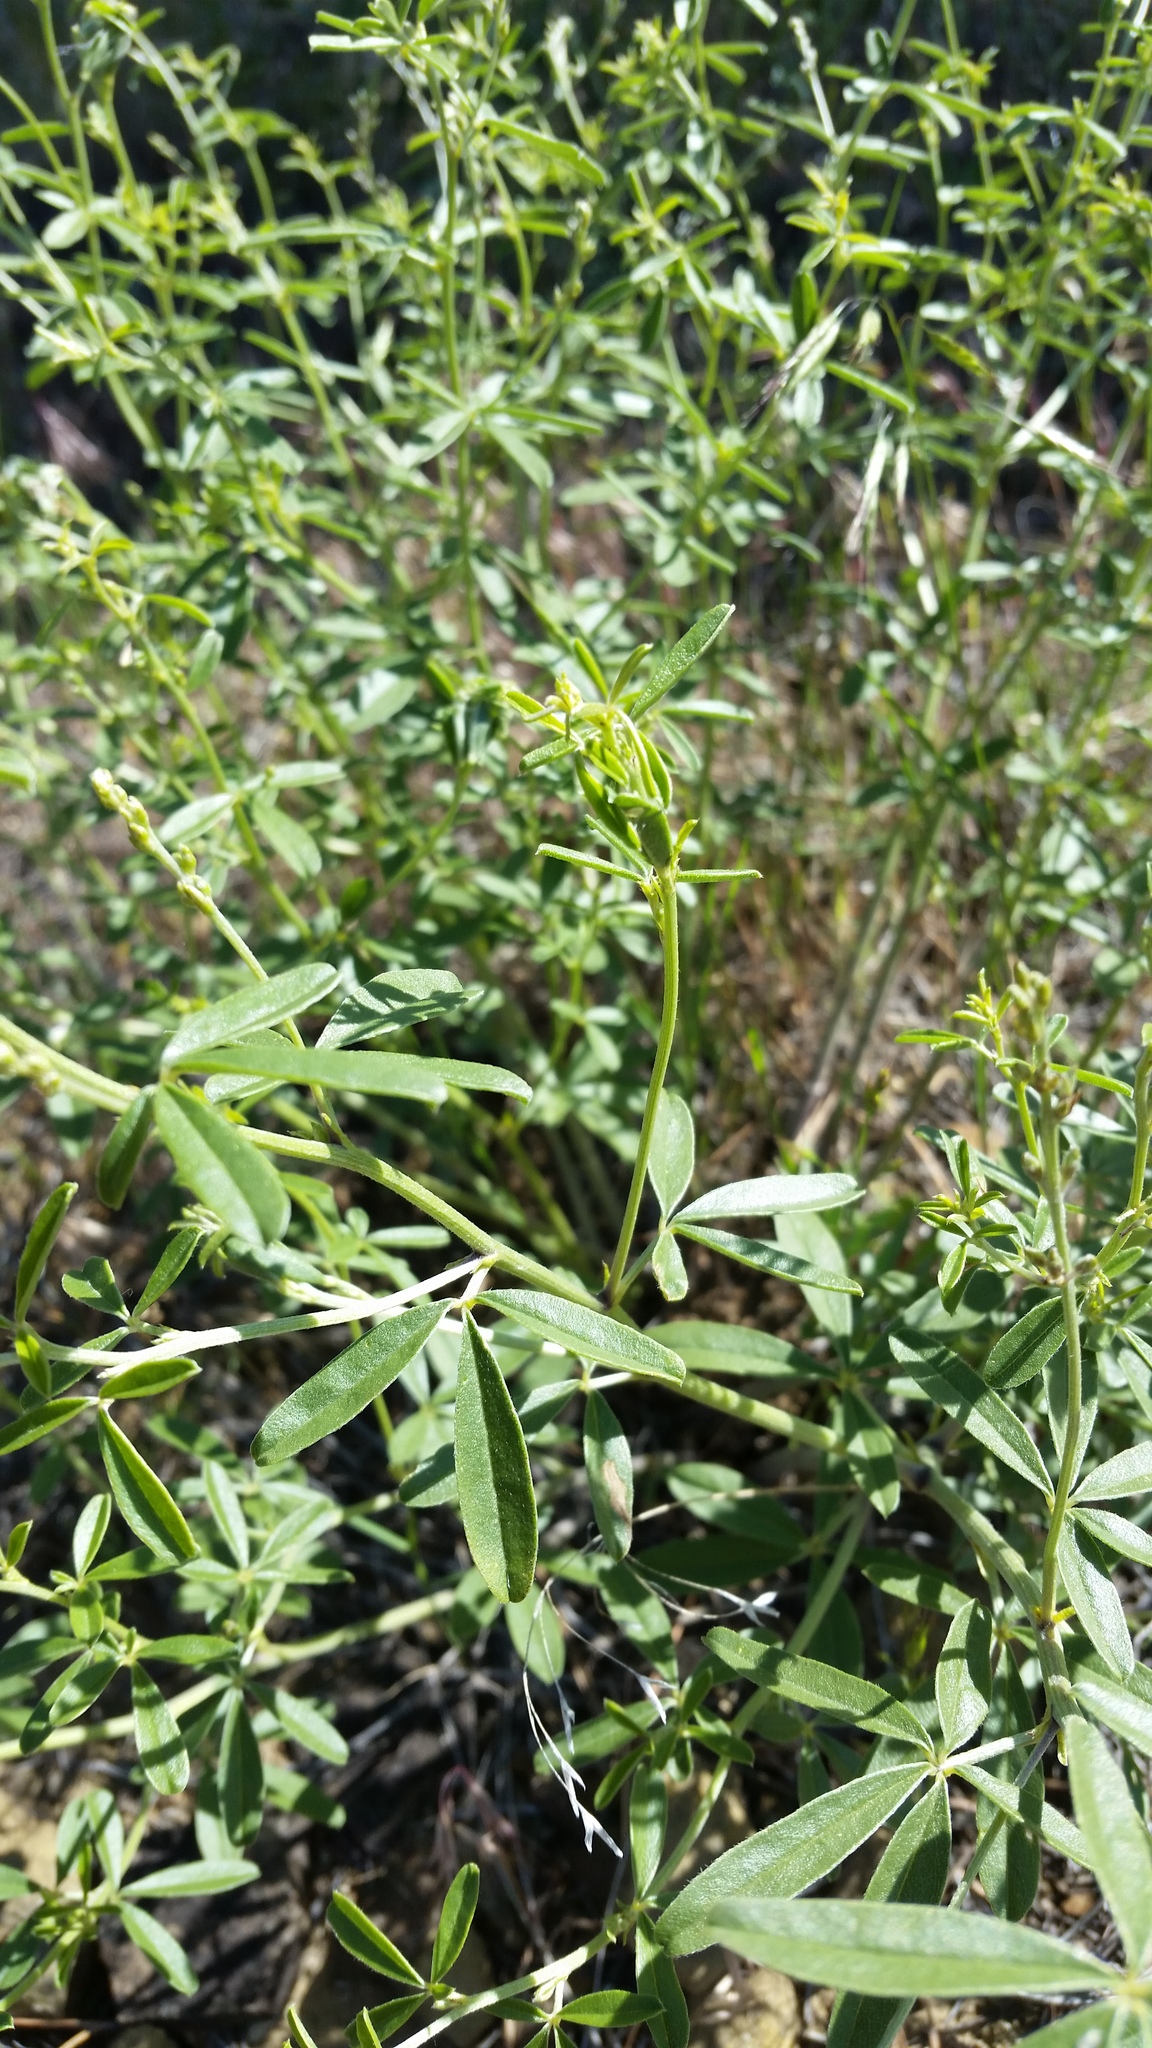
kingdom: Plantae
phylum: Tracheophyta
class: Magnoliopsida
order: Fabales
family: Fabaceae
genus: Pediomelum
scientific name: Pediomelum tenuiflorum
